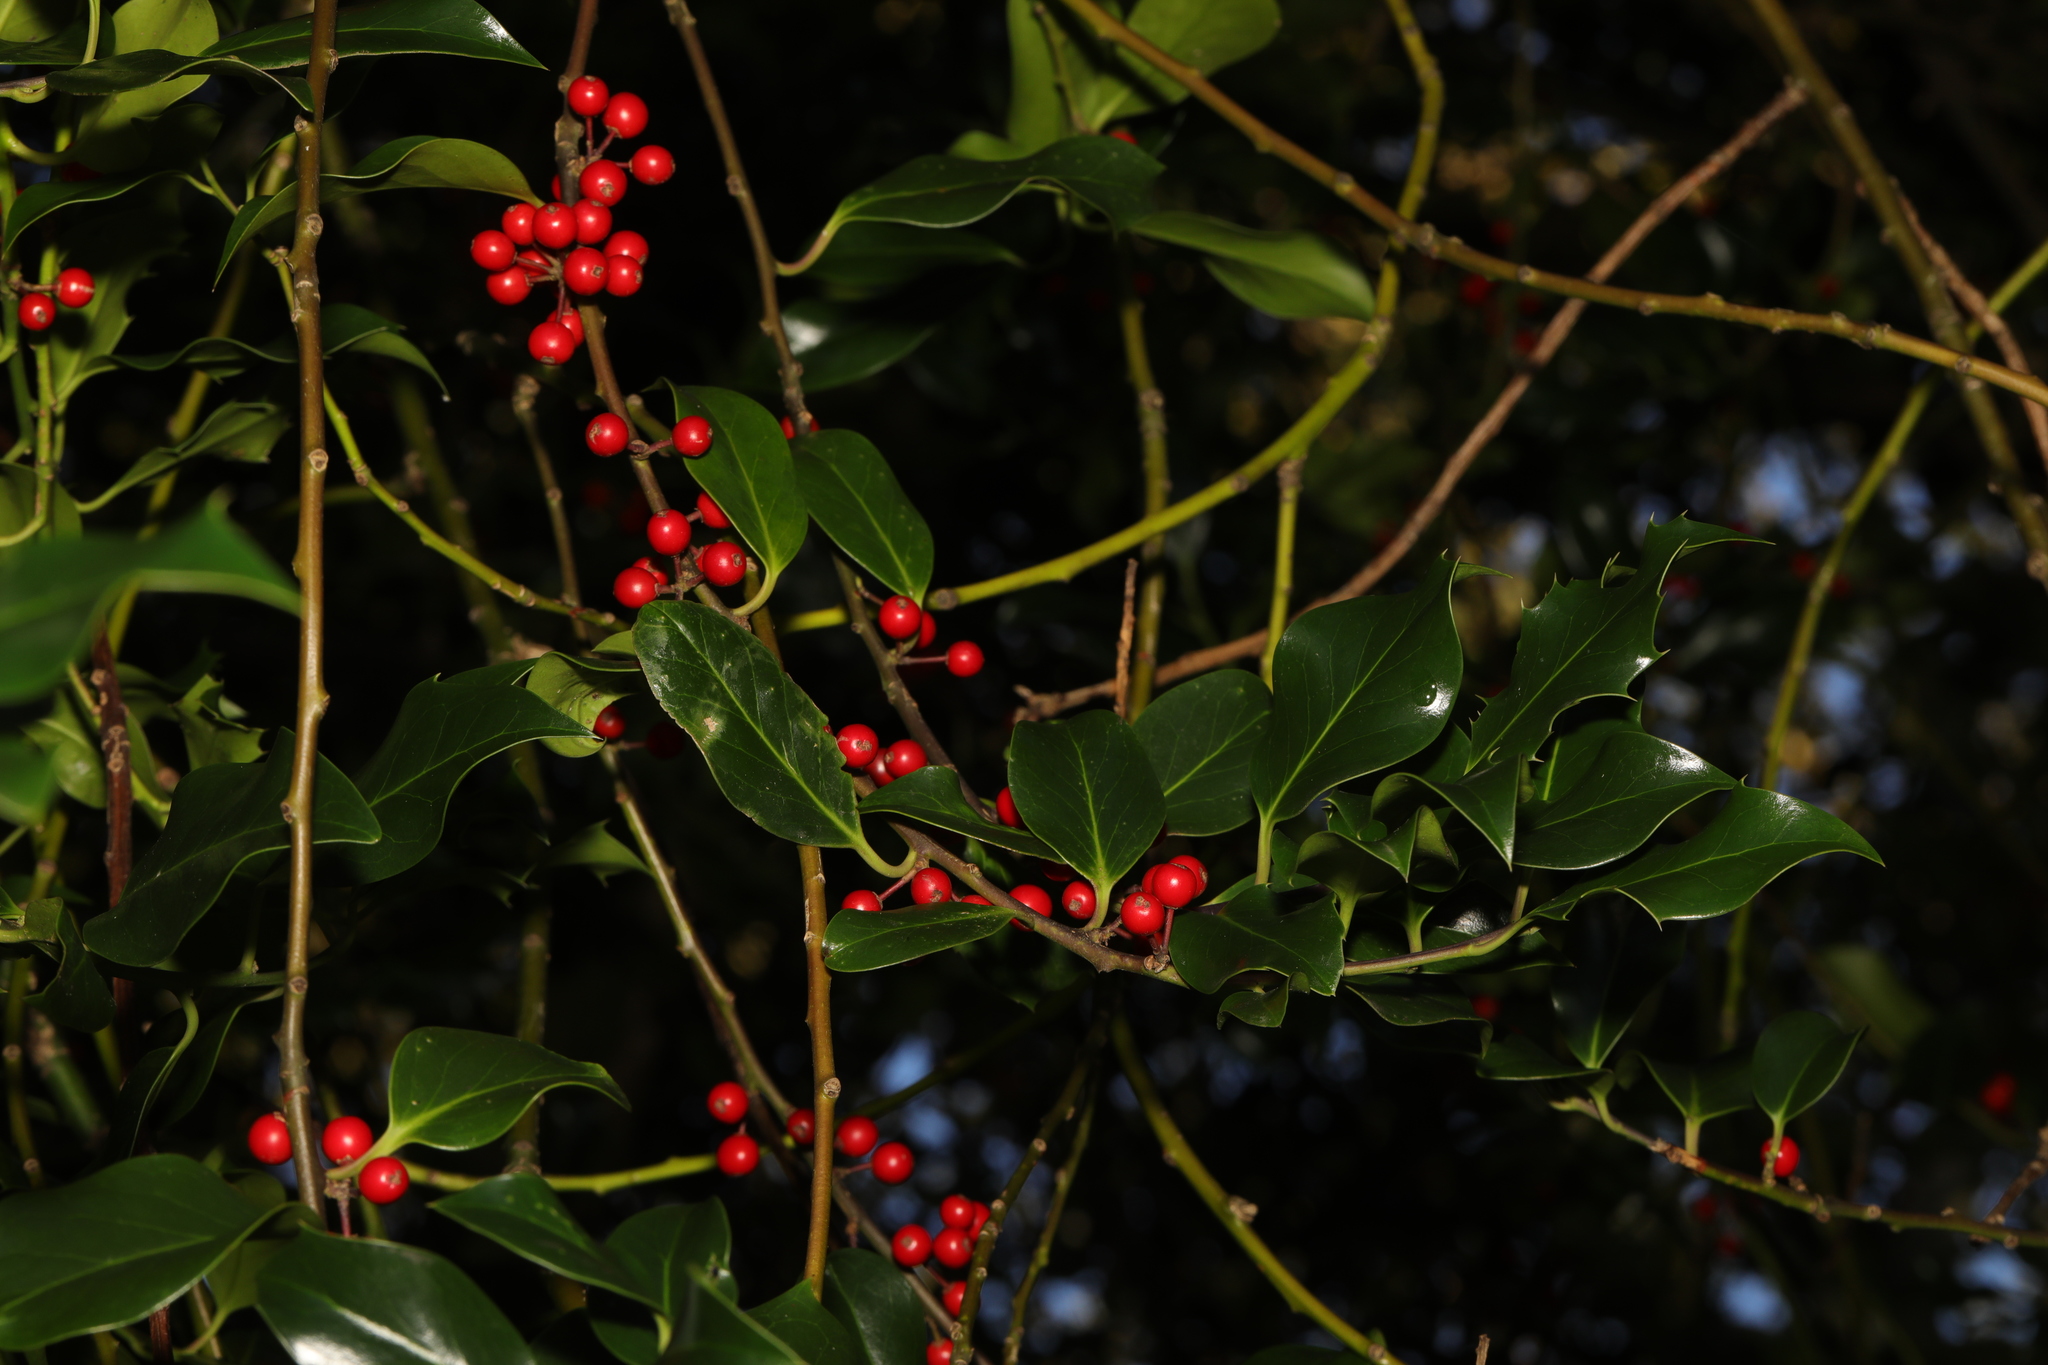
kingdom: Plantae
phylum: Tracheophyta
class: Magnoliopsida
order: Aquifoliales
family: Aquifoliaceae
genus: Ilex
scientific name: Ilex aquifolium
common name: English holly
